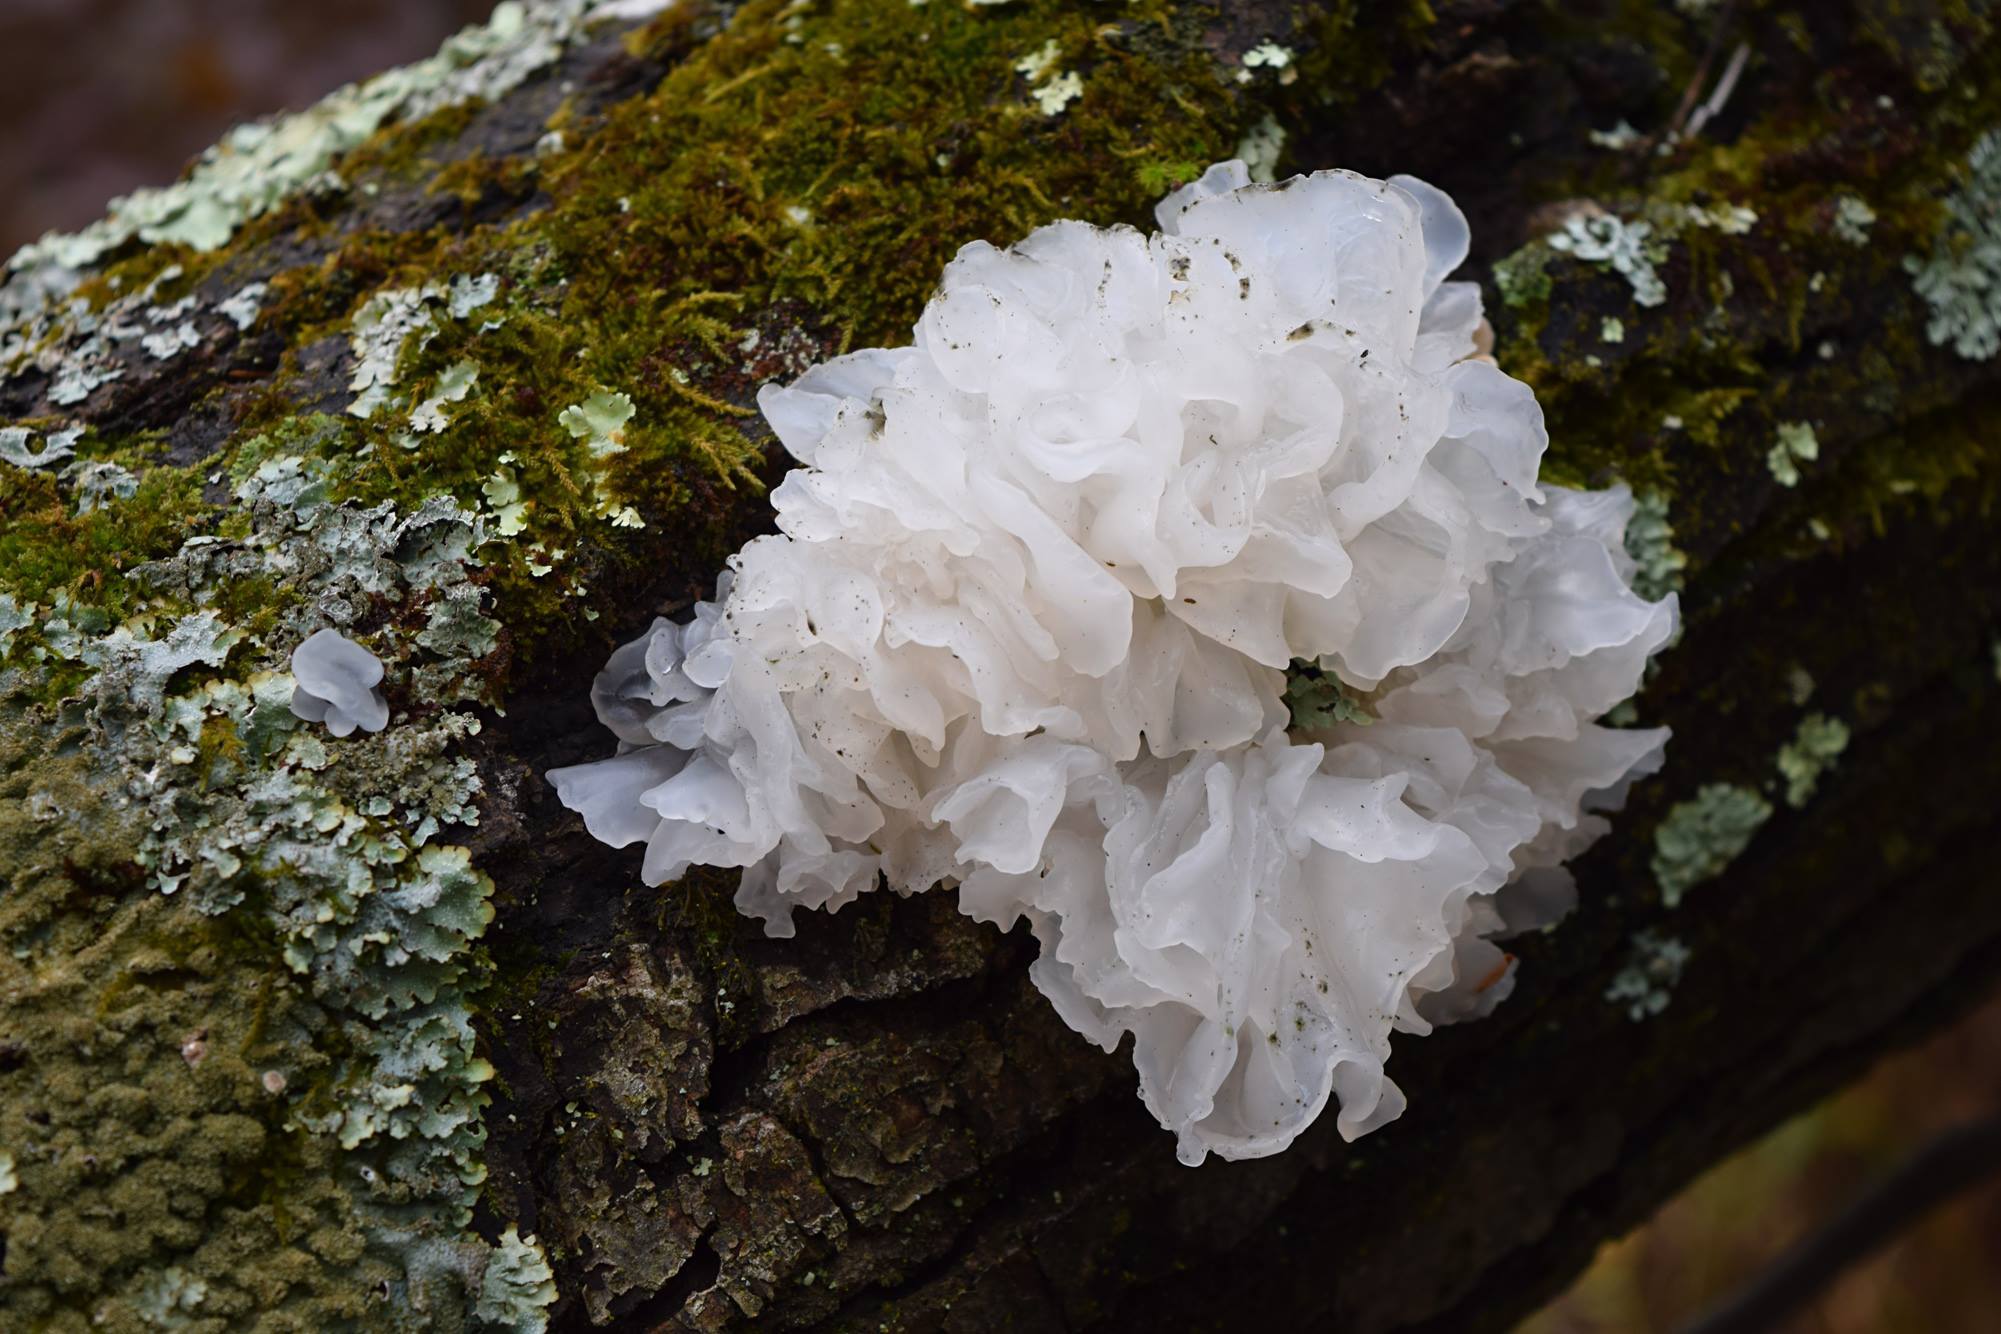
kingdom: Fungi
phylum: Basidiomycota
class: Tremellomycetes
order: Tremellales
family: Tremellaceae
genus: Tremella
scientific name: Tremella fuciformis
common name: Snow fungus
